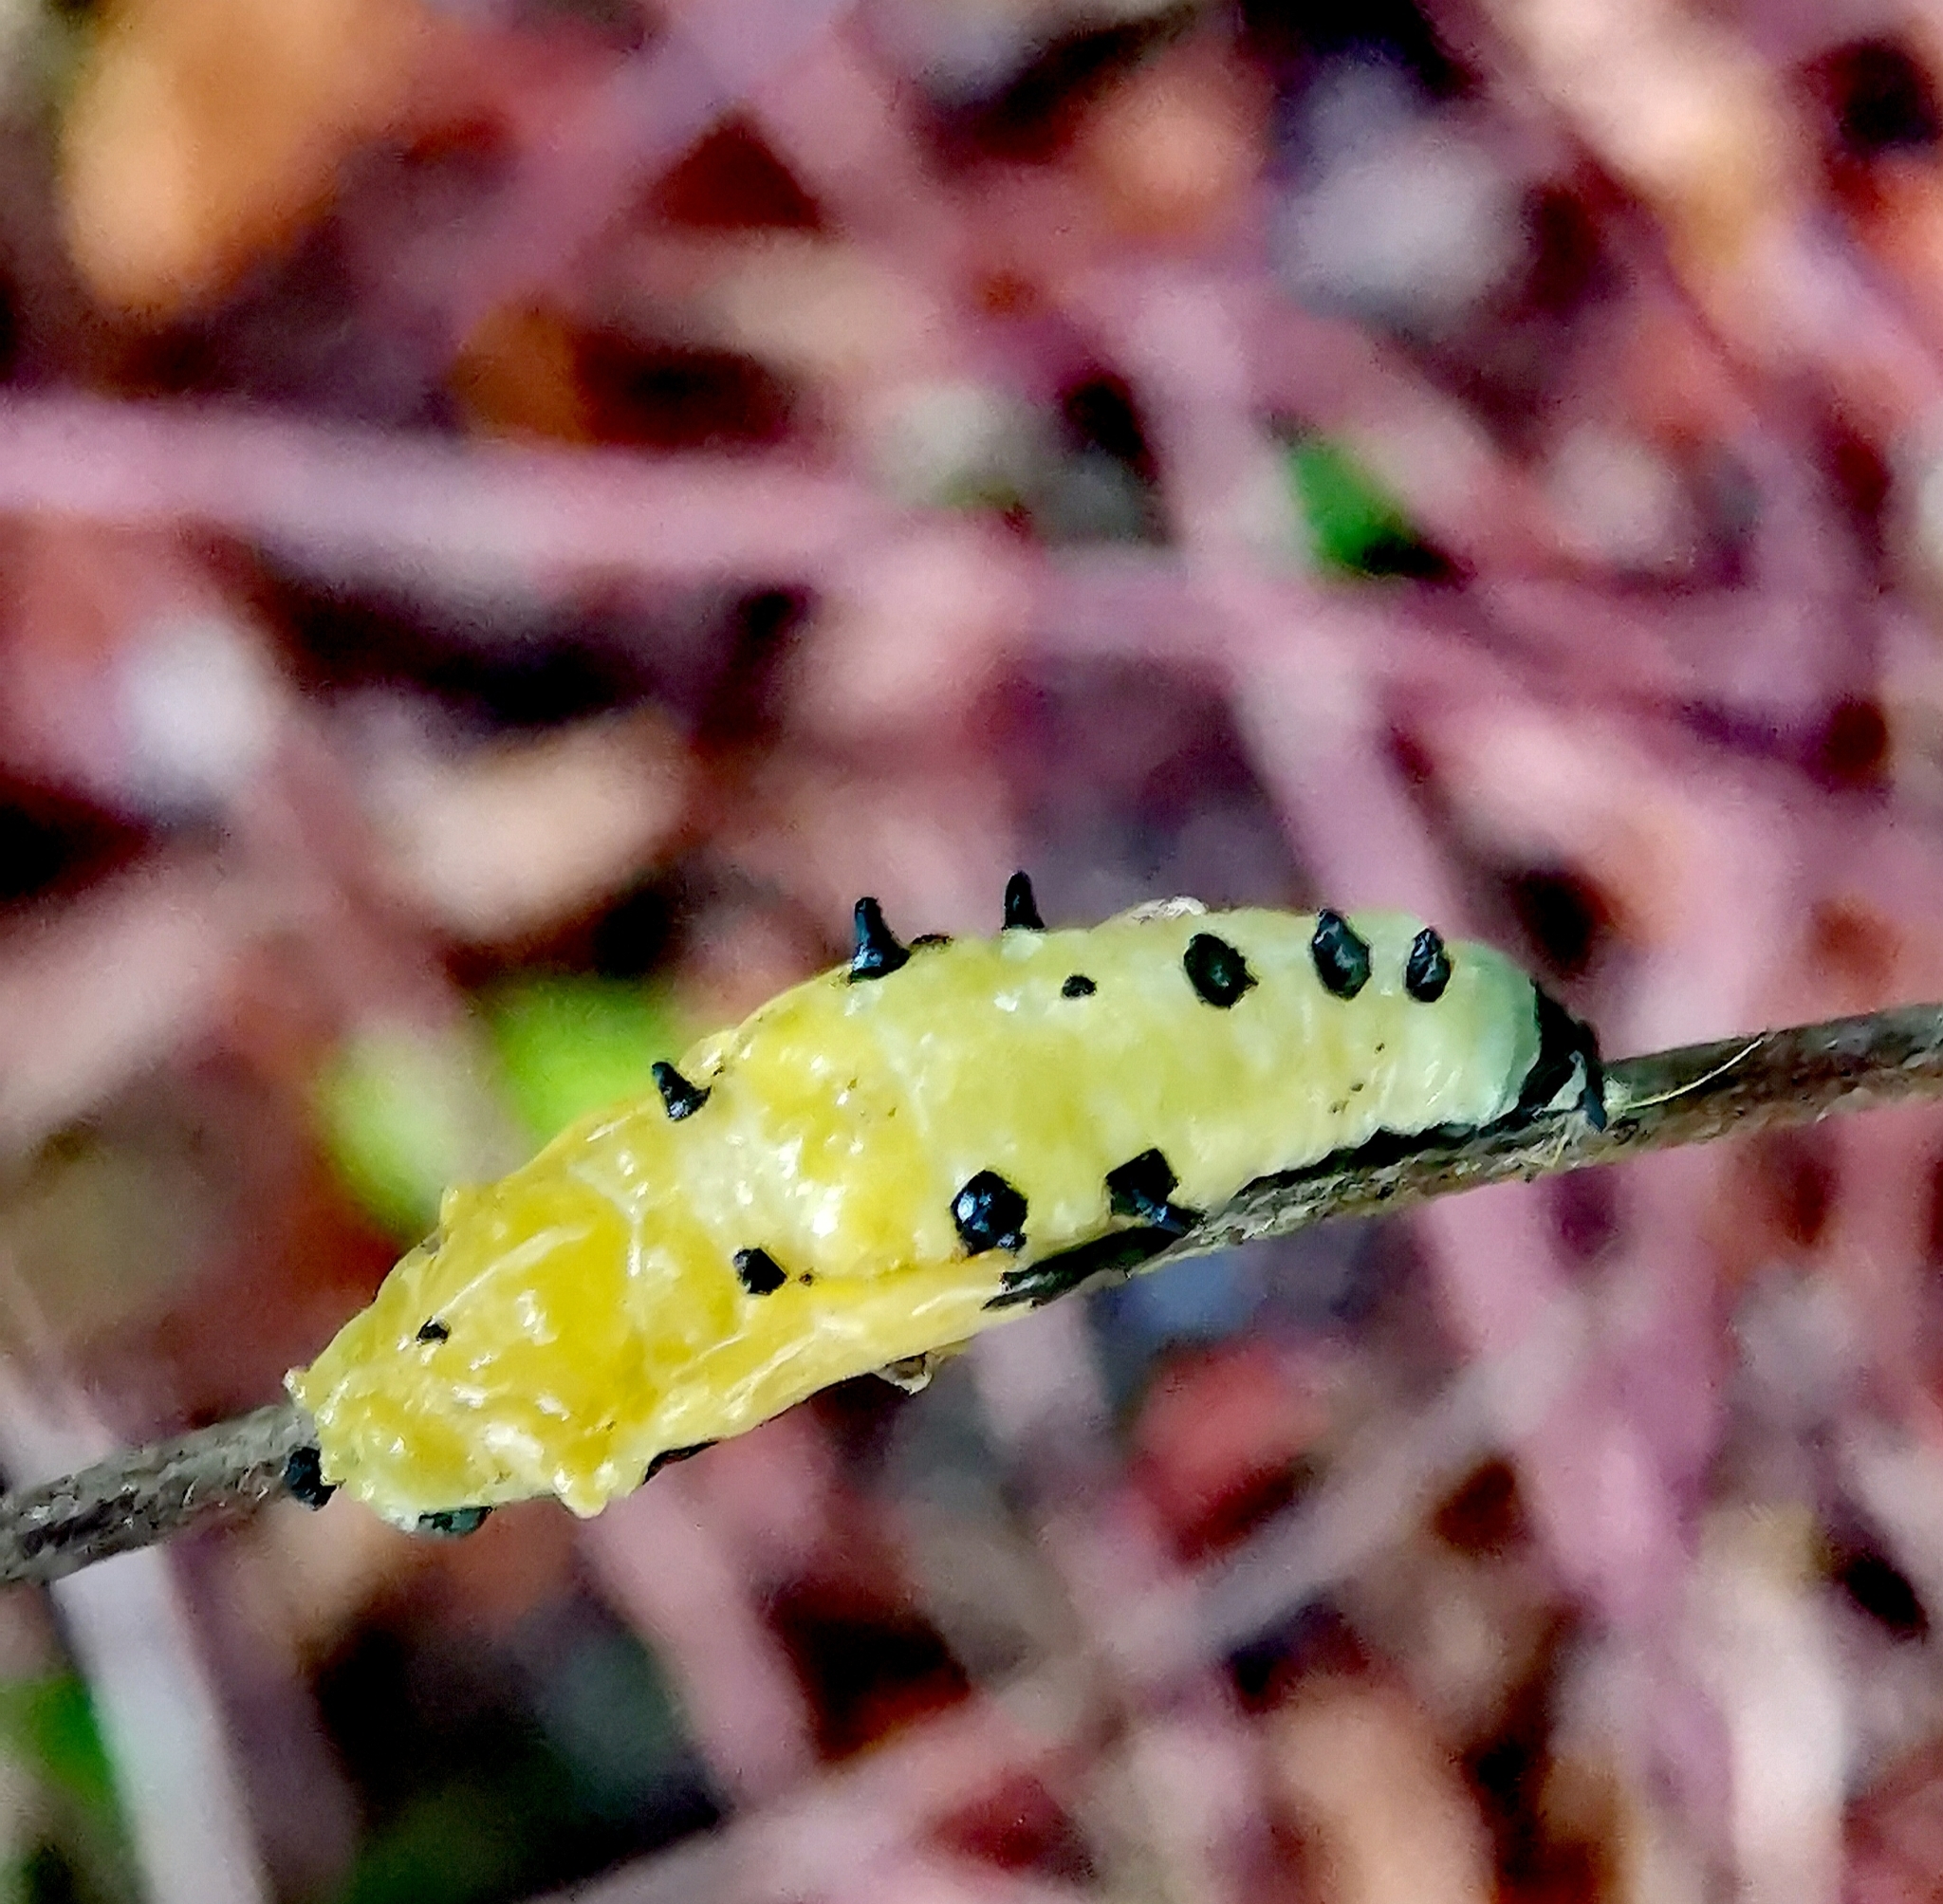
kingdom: Animalia
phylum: Arthropoda
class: Insecta
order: Lepidoptera
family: Pieridae
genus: Delias
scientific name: Delias hyparete
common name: Painted jezebel
